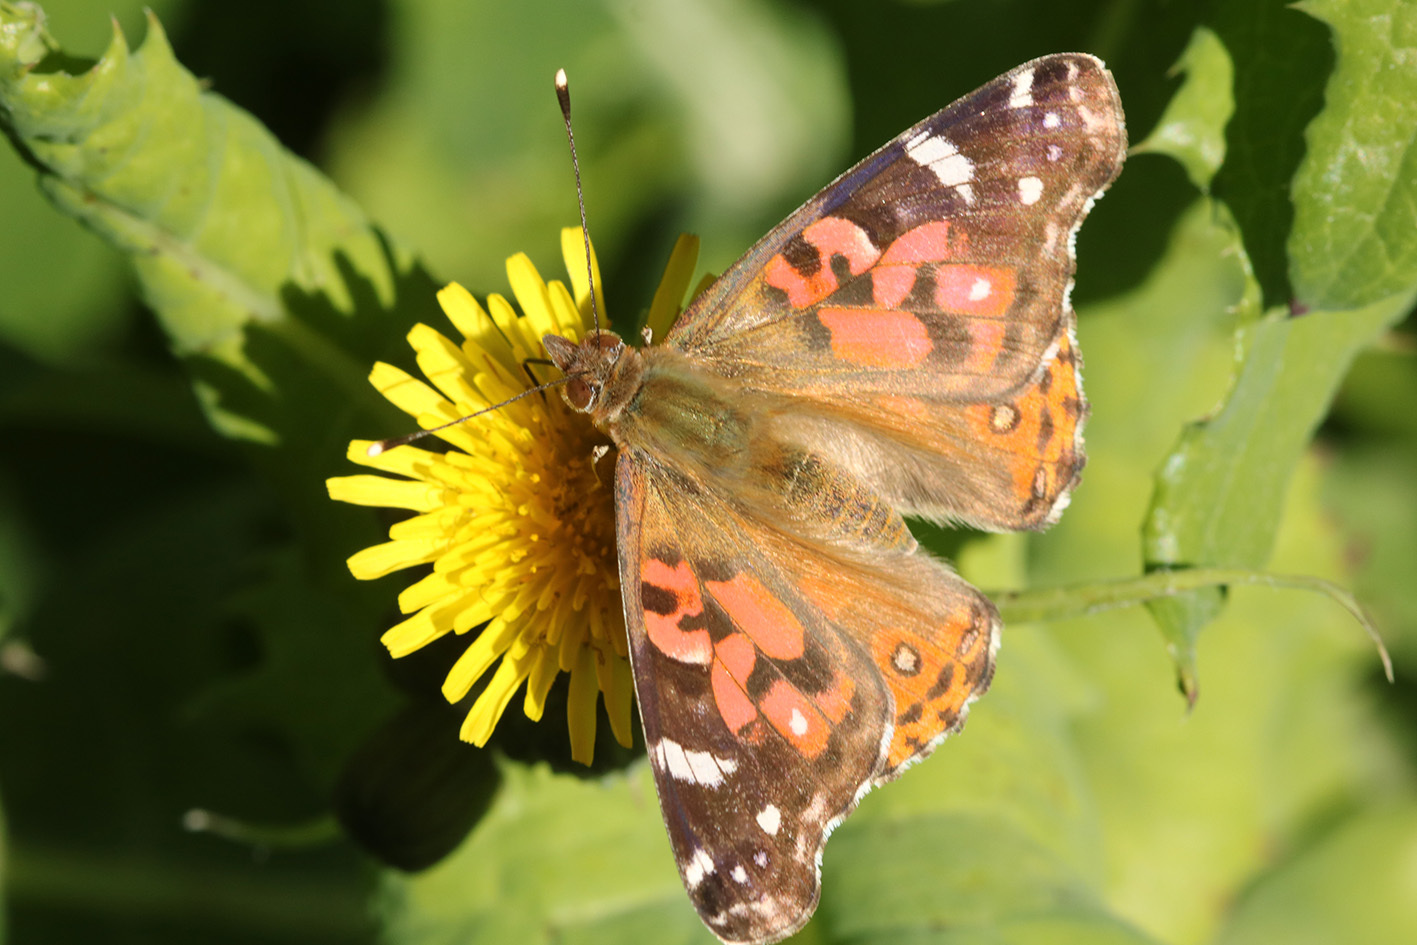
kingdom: Animalia
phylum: Arthropoda
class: Insecta
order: Lepidoptera
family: Nymphalidae
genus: Vanessa
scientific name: Vanessa braziliensis
